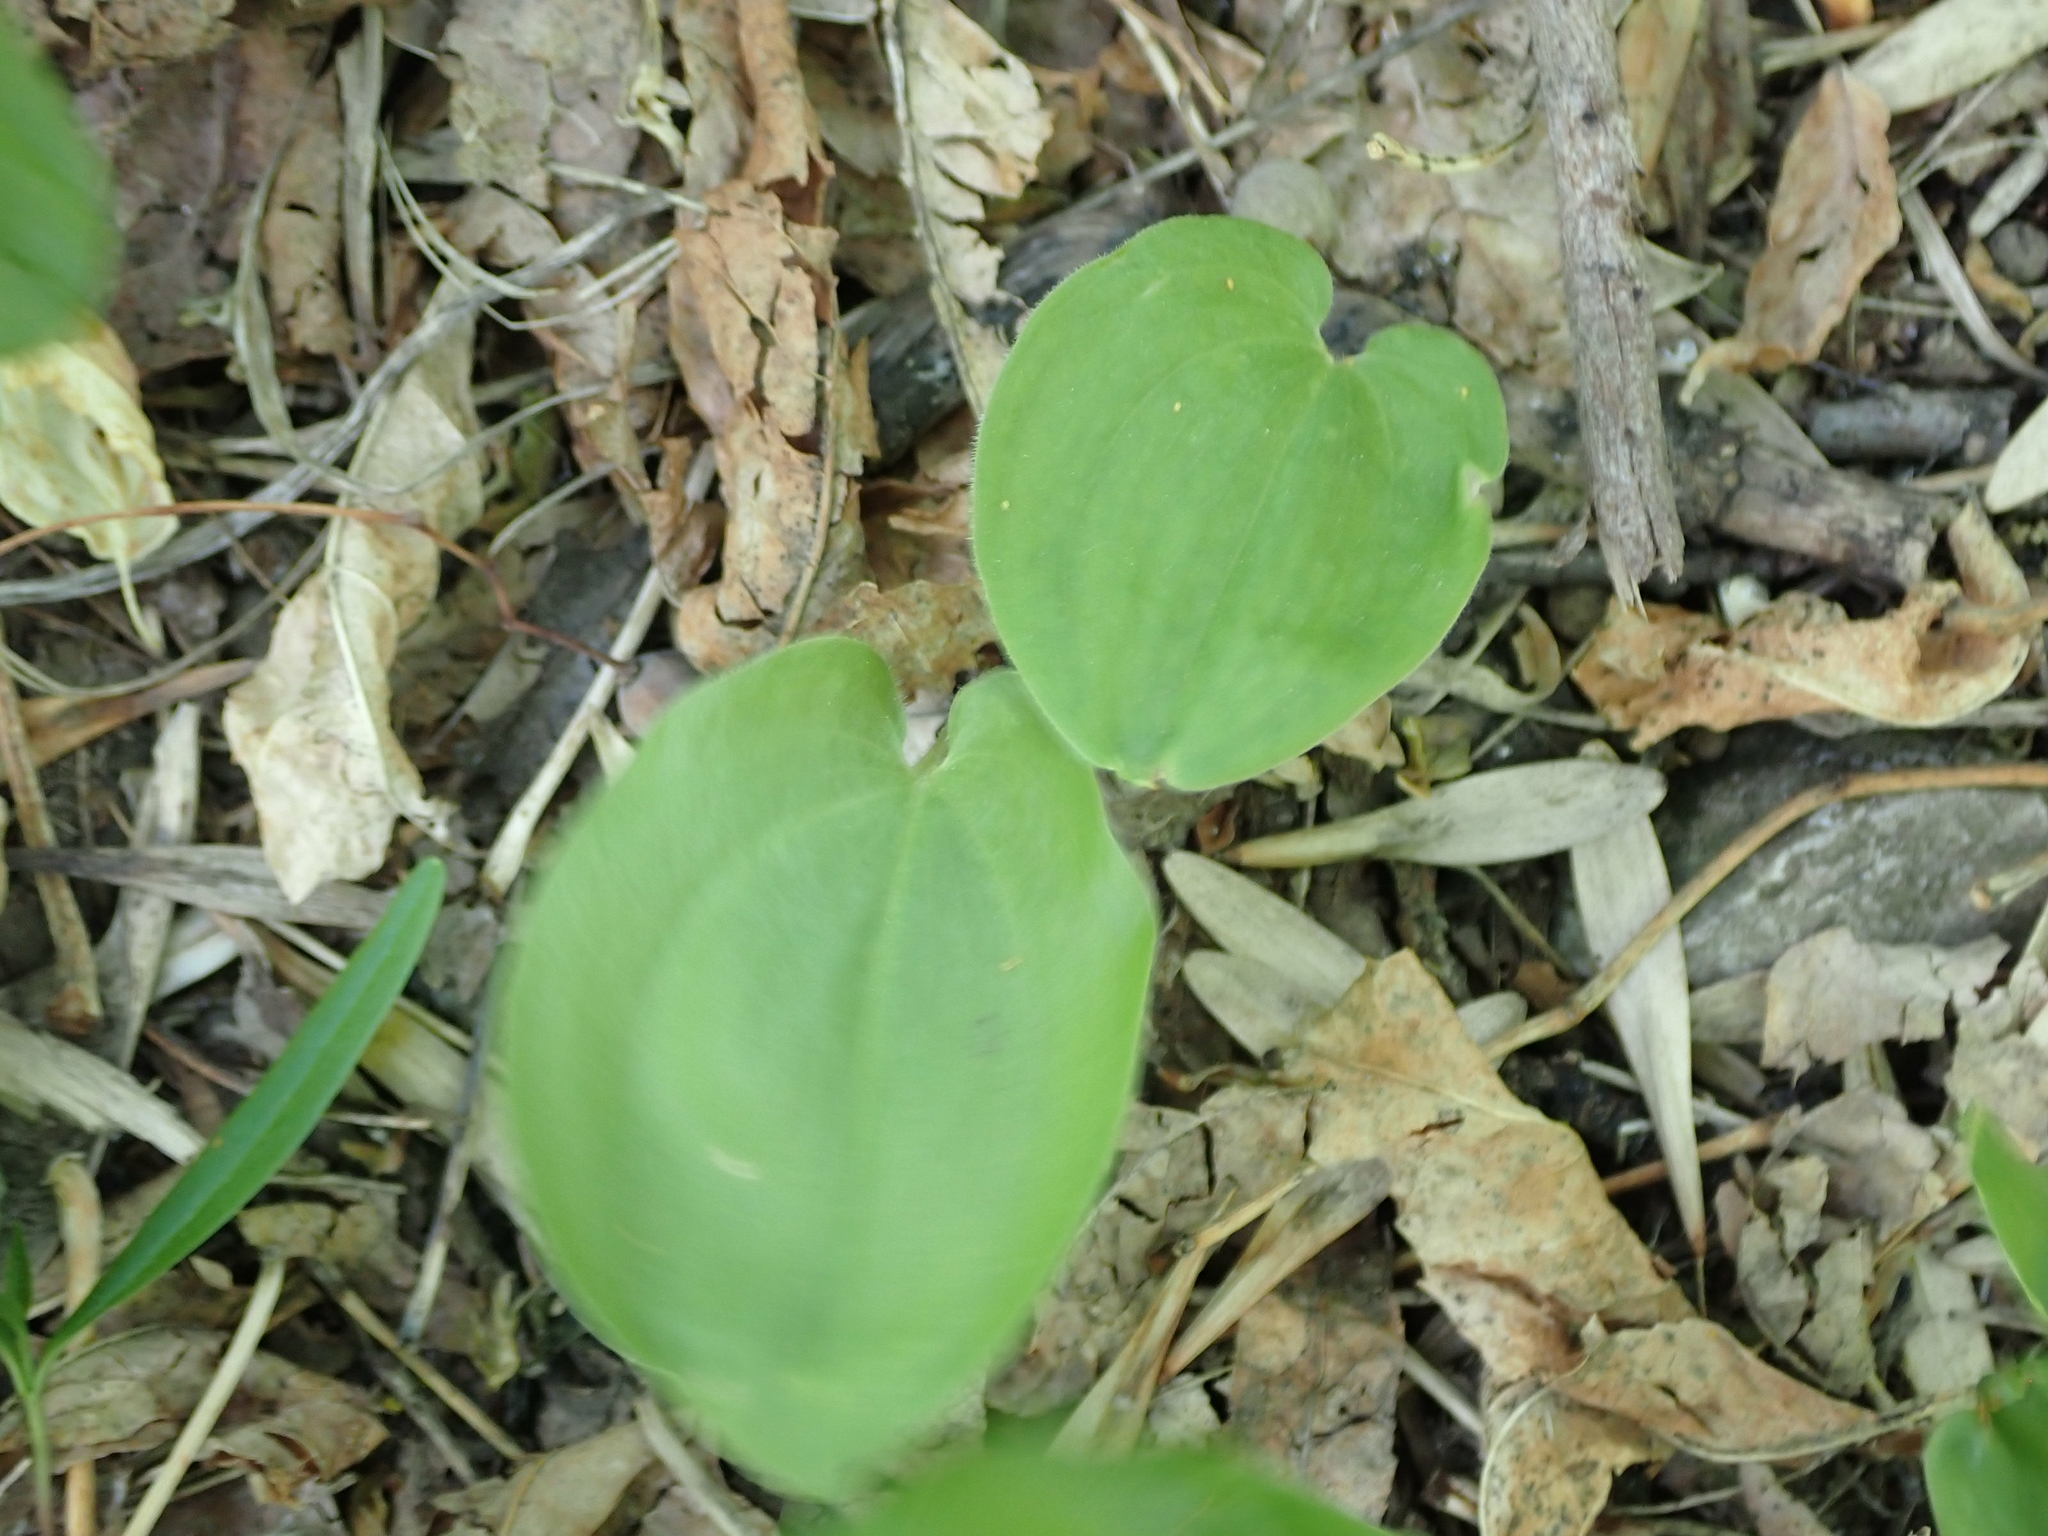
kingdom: Plantae
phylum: Tracheophyta
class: Liliopsida
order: Asparagales
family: Asparagaceae
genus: Maianthemum
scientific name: Maianthemum canadense
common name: False lily-of-the-valley
